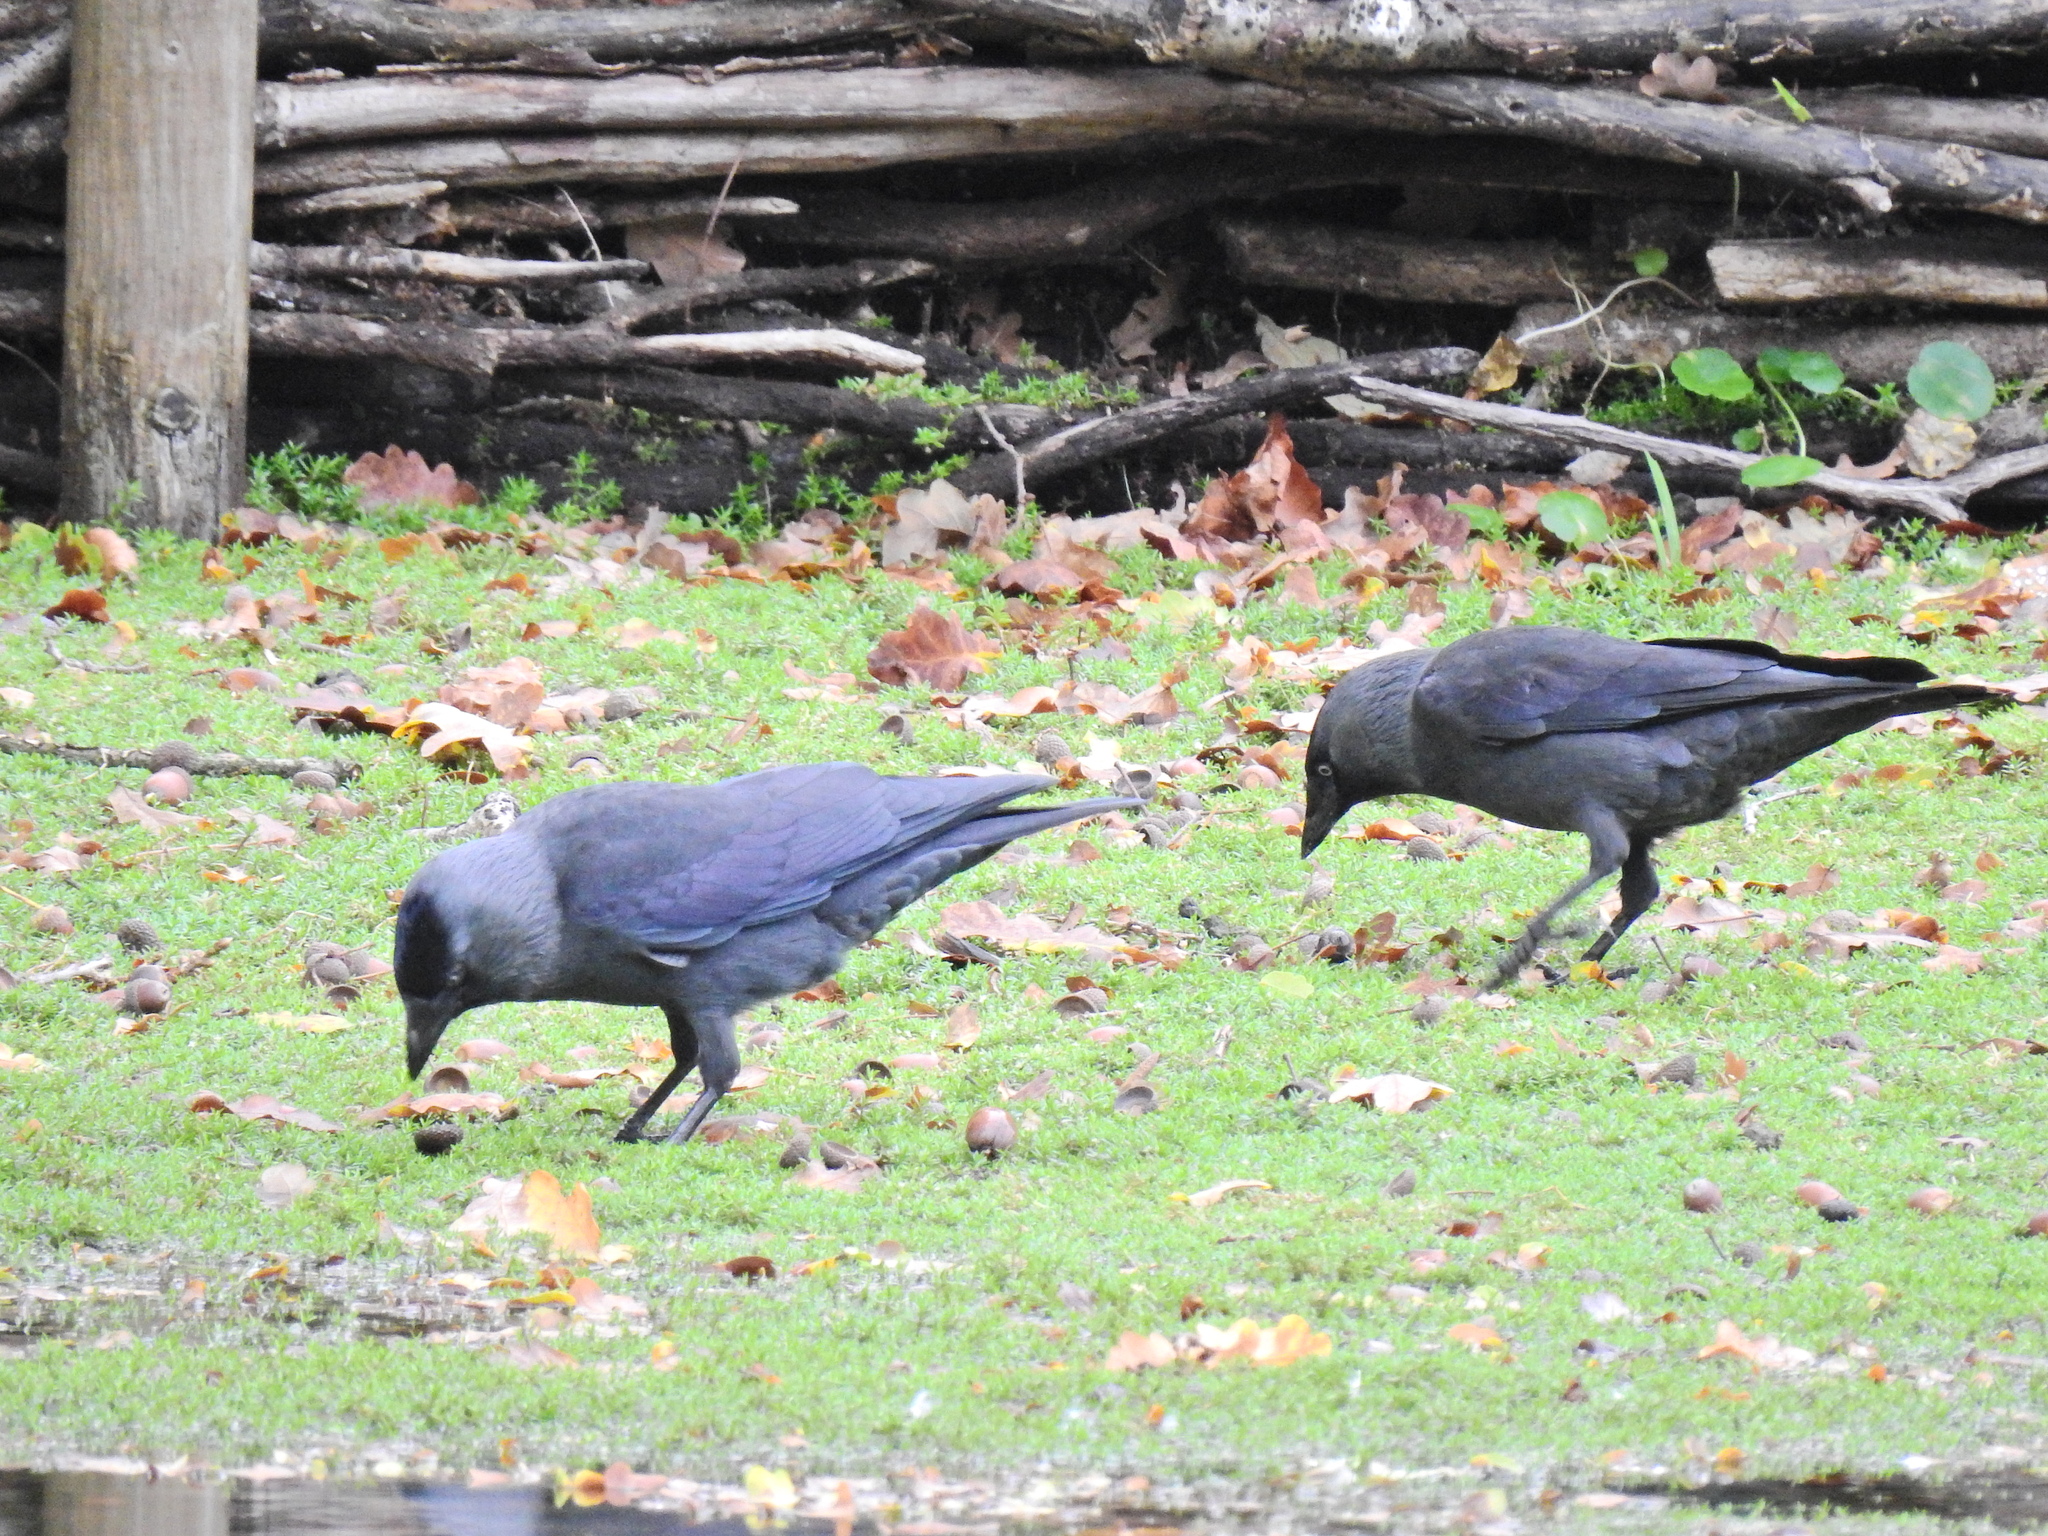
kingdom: Animalia
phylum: Chordata
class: Aves
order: Passeriformes
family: Corvidae
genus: Coloeus
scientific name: Coloeus monedula
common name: Western jackdaw
